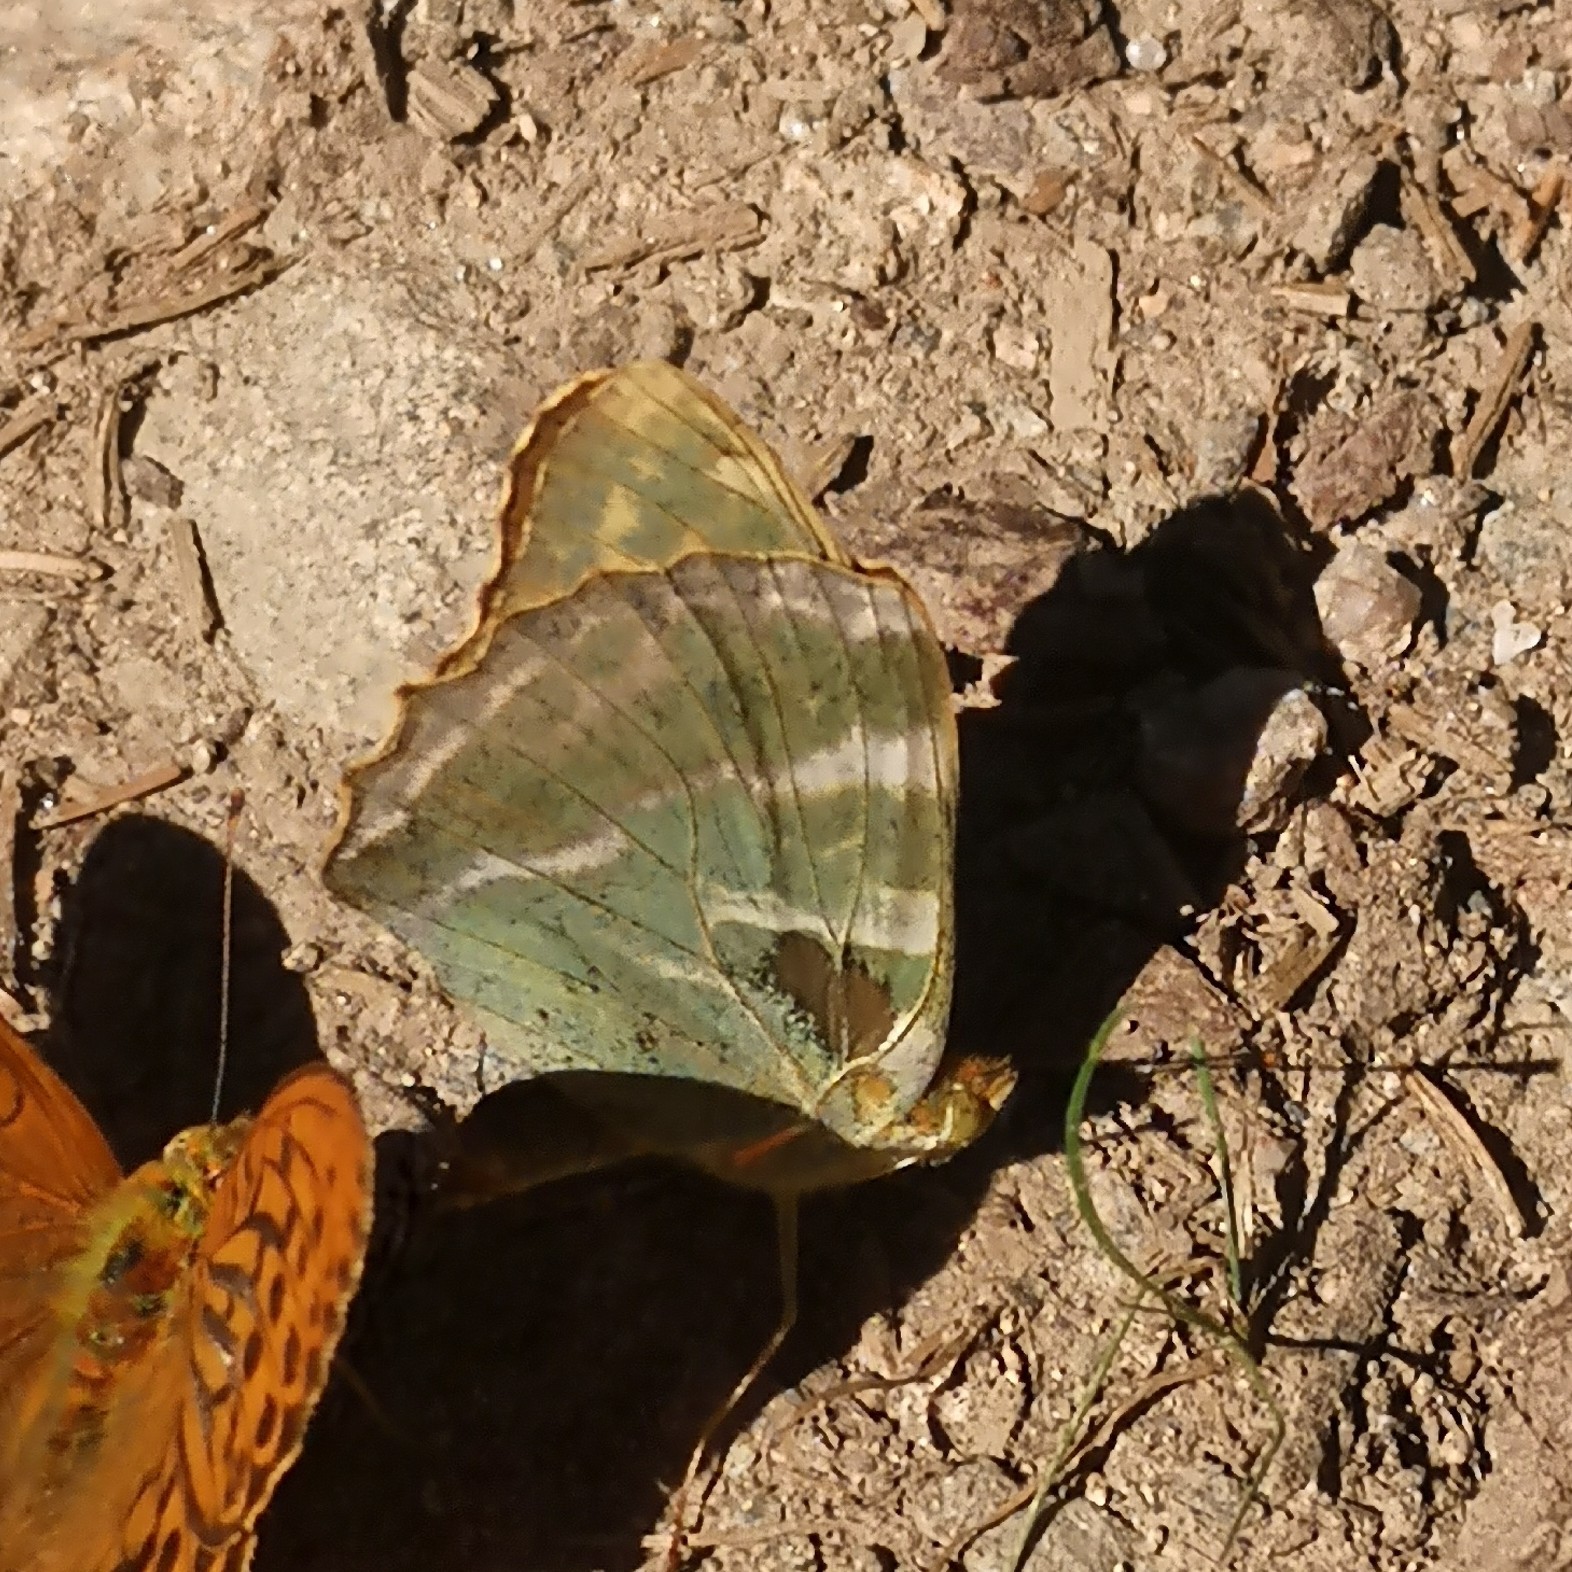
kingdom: Animalia
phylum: Arthropoda
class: Insecta
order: Lepidoptera
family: Nymphalidae
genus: Argynnis
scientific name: Argynnis paphia
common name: Silver-washed fritillary
